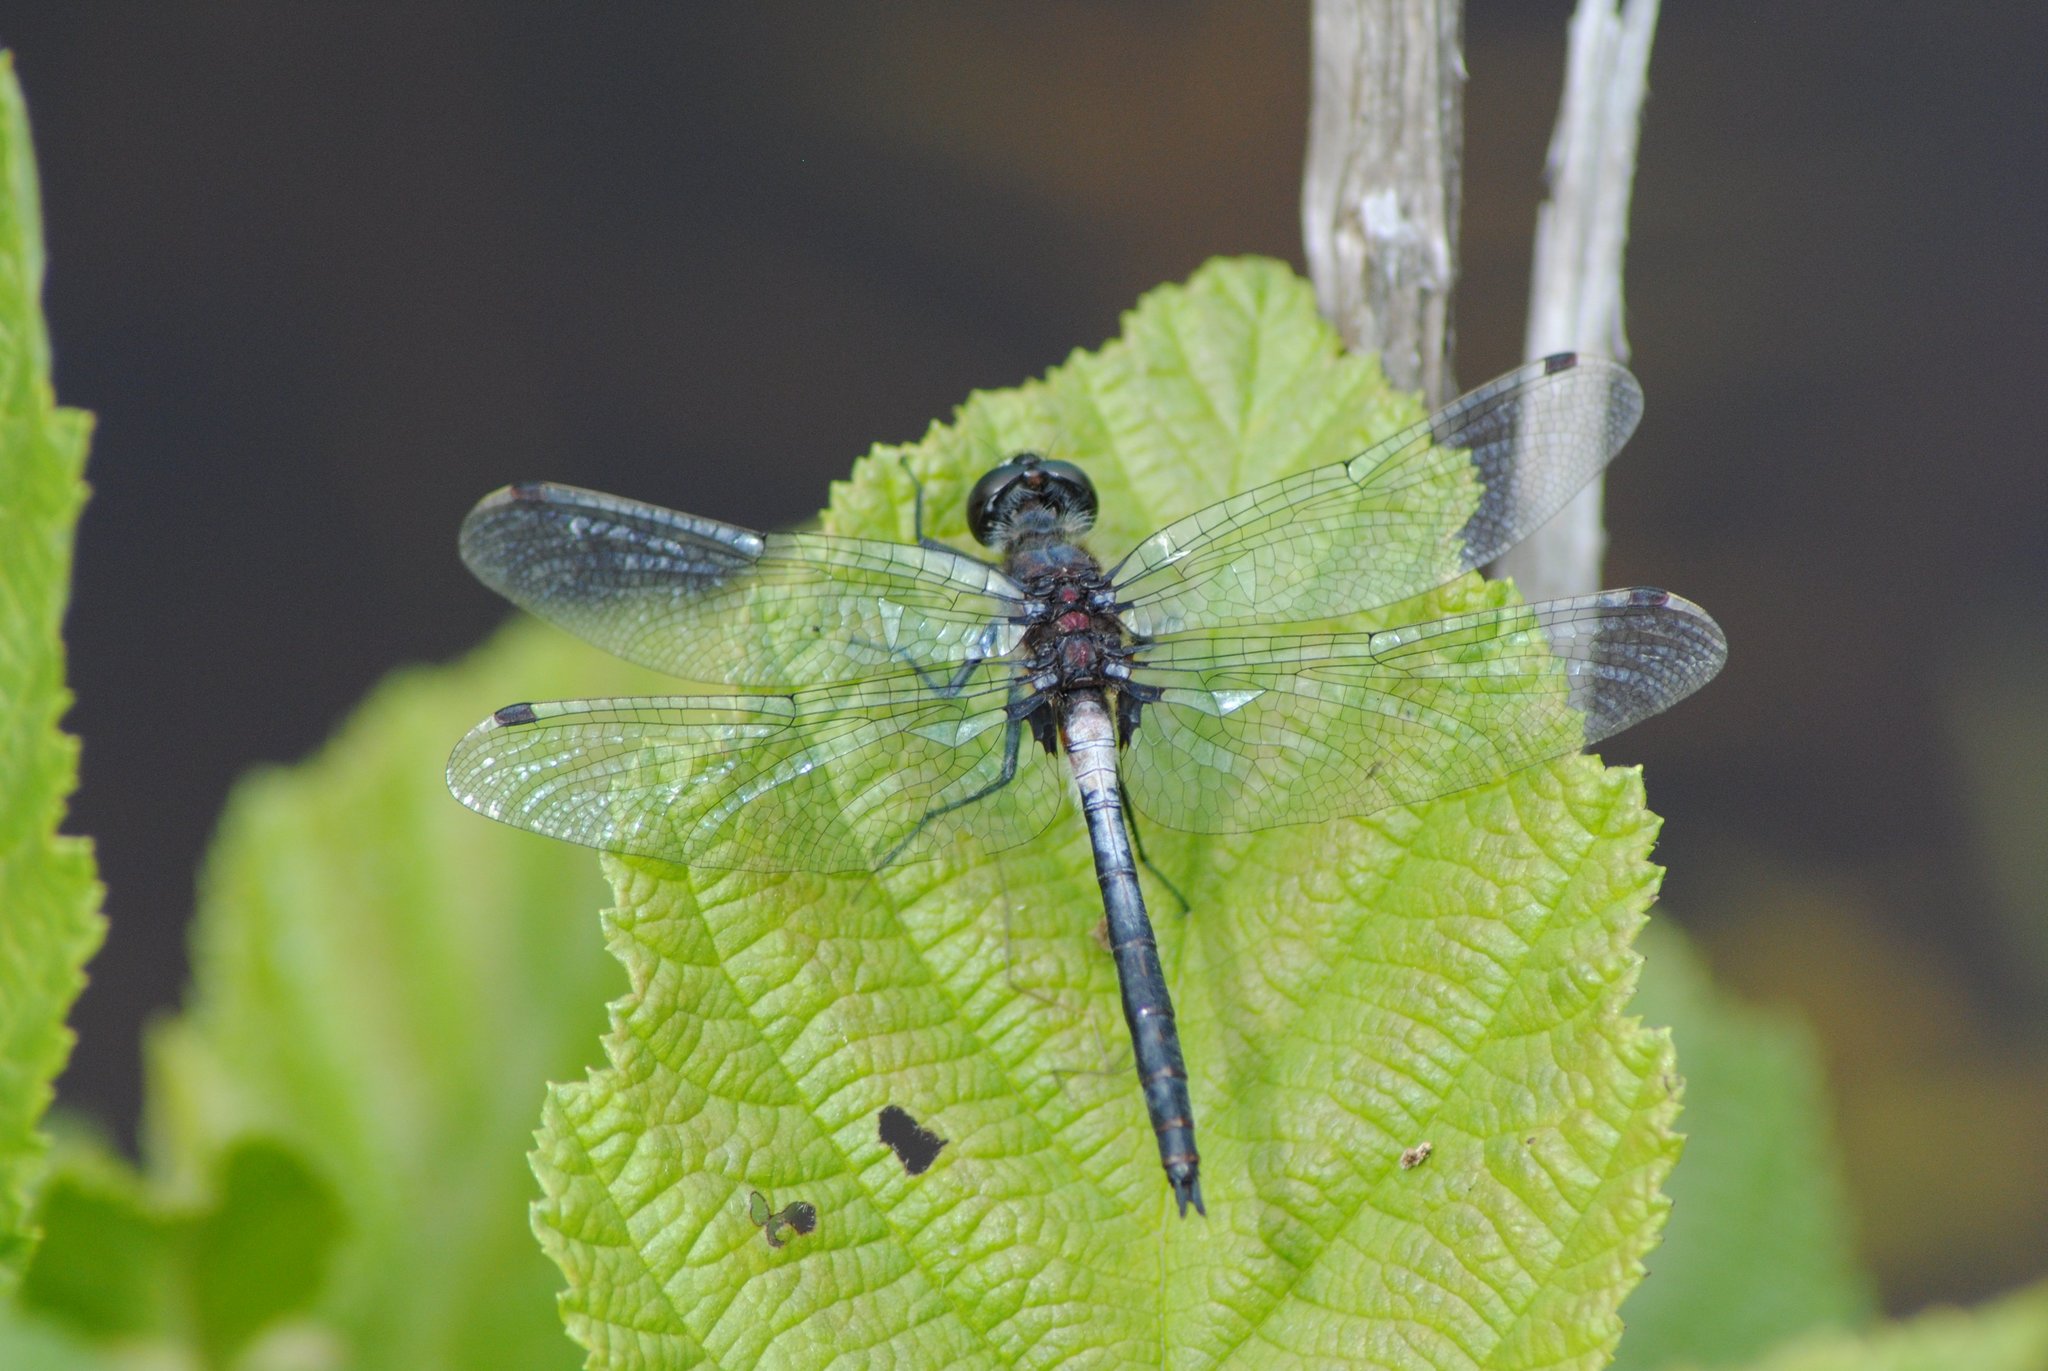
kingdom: Animalia
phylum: Arthropoda
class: Insecta
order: Odonata
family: Libellulidae
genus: Leucorrhinia
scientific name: Leucorrhinia proxima
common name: Belted whiteface
